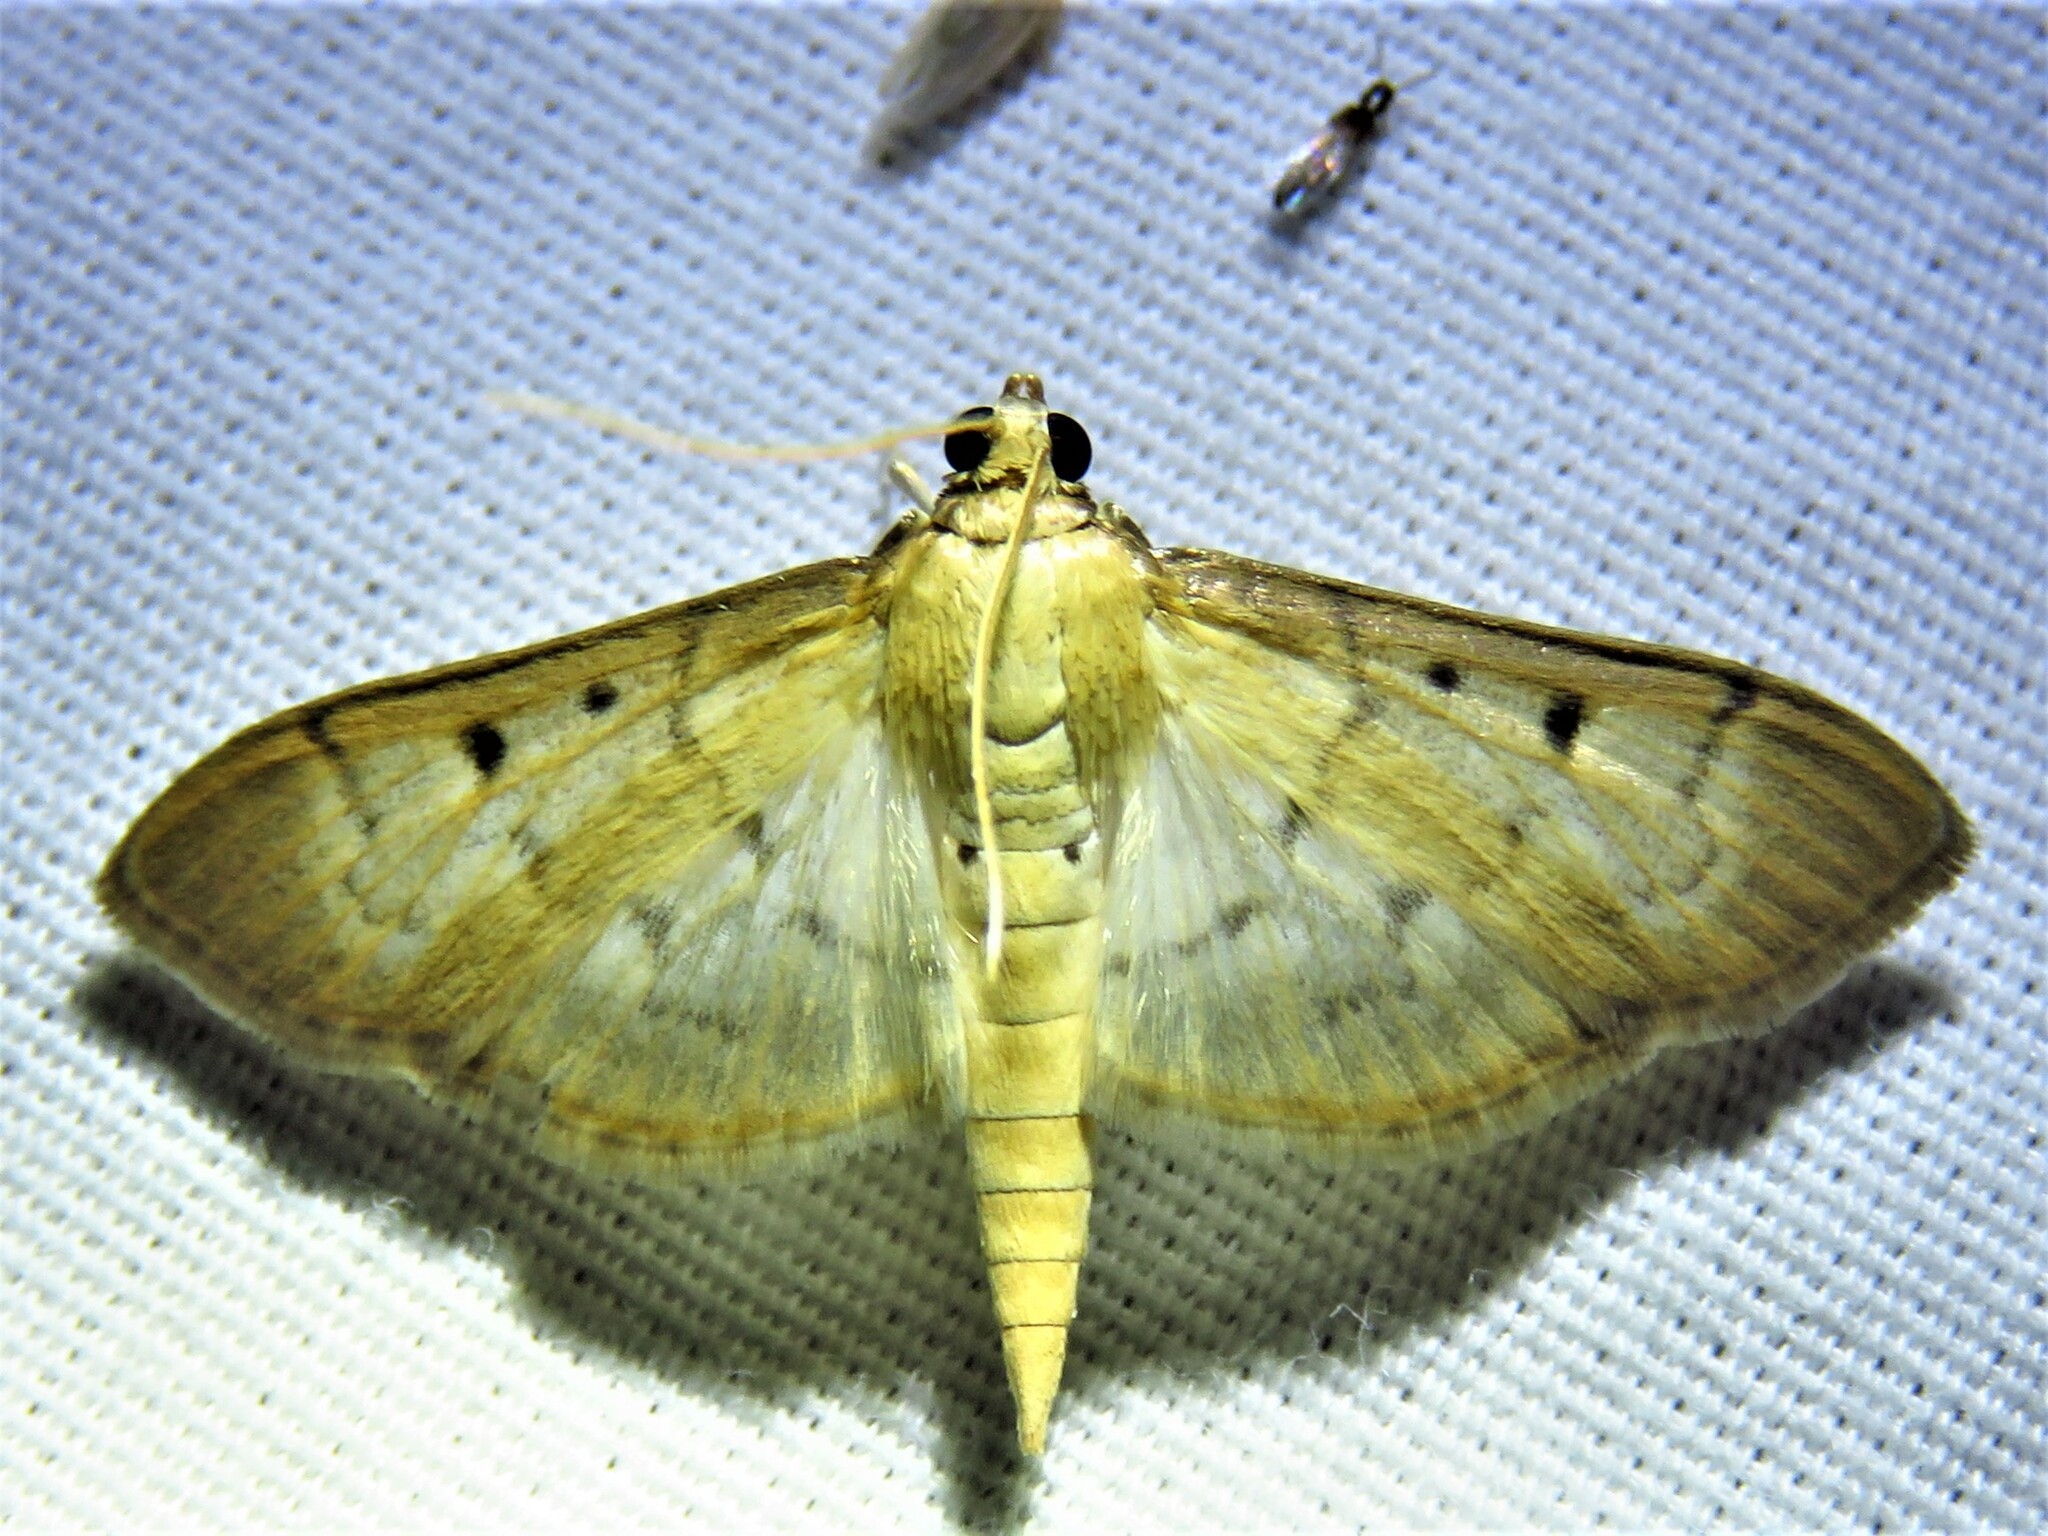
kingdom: Animalia
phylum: Arthropoda
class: Insecta
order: Lepidoptera
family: Crambidae
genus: Herpetogramma
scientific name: Herpetogramma bipunctalis
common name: Southern beet webworm
